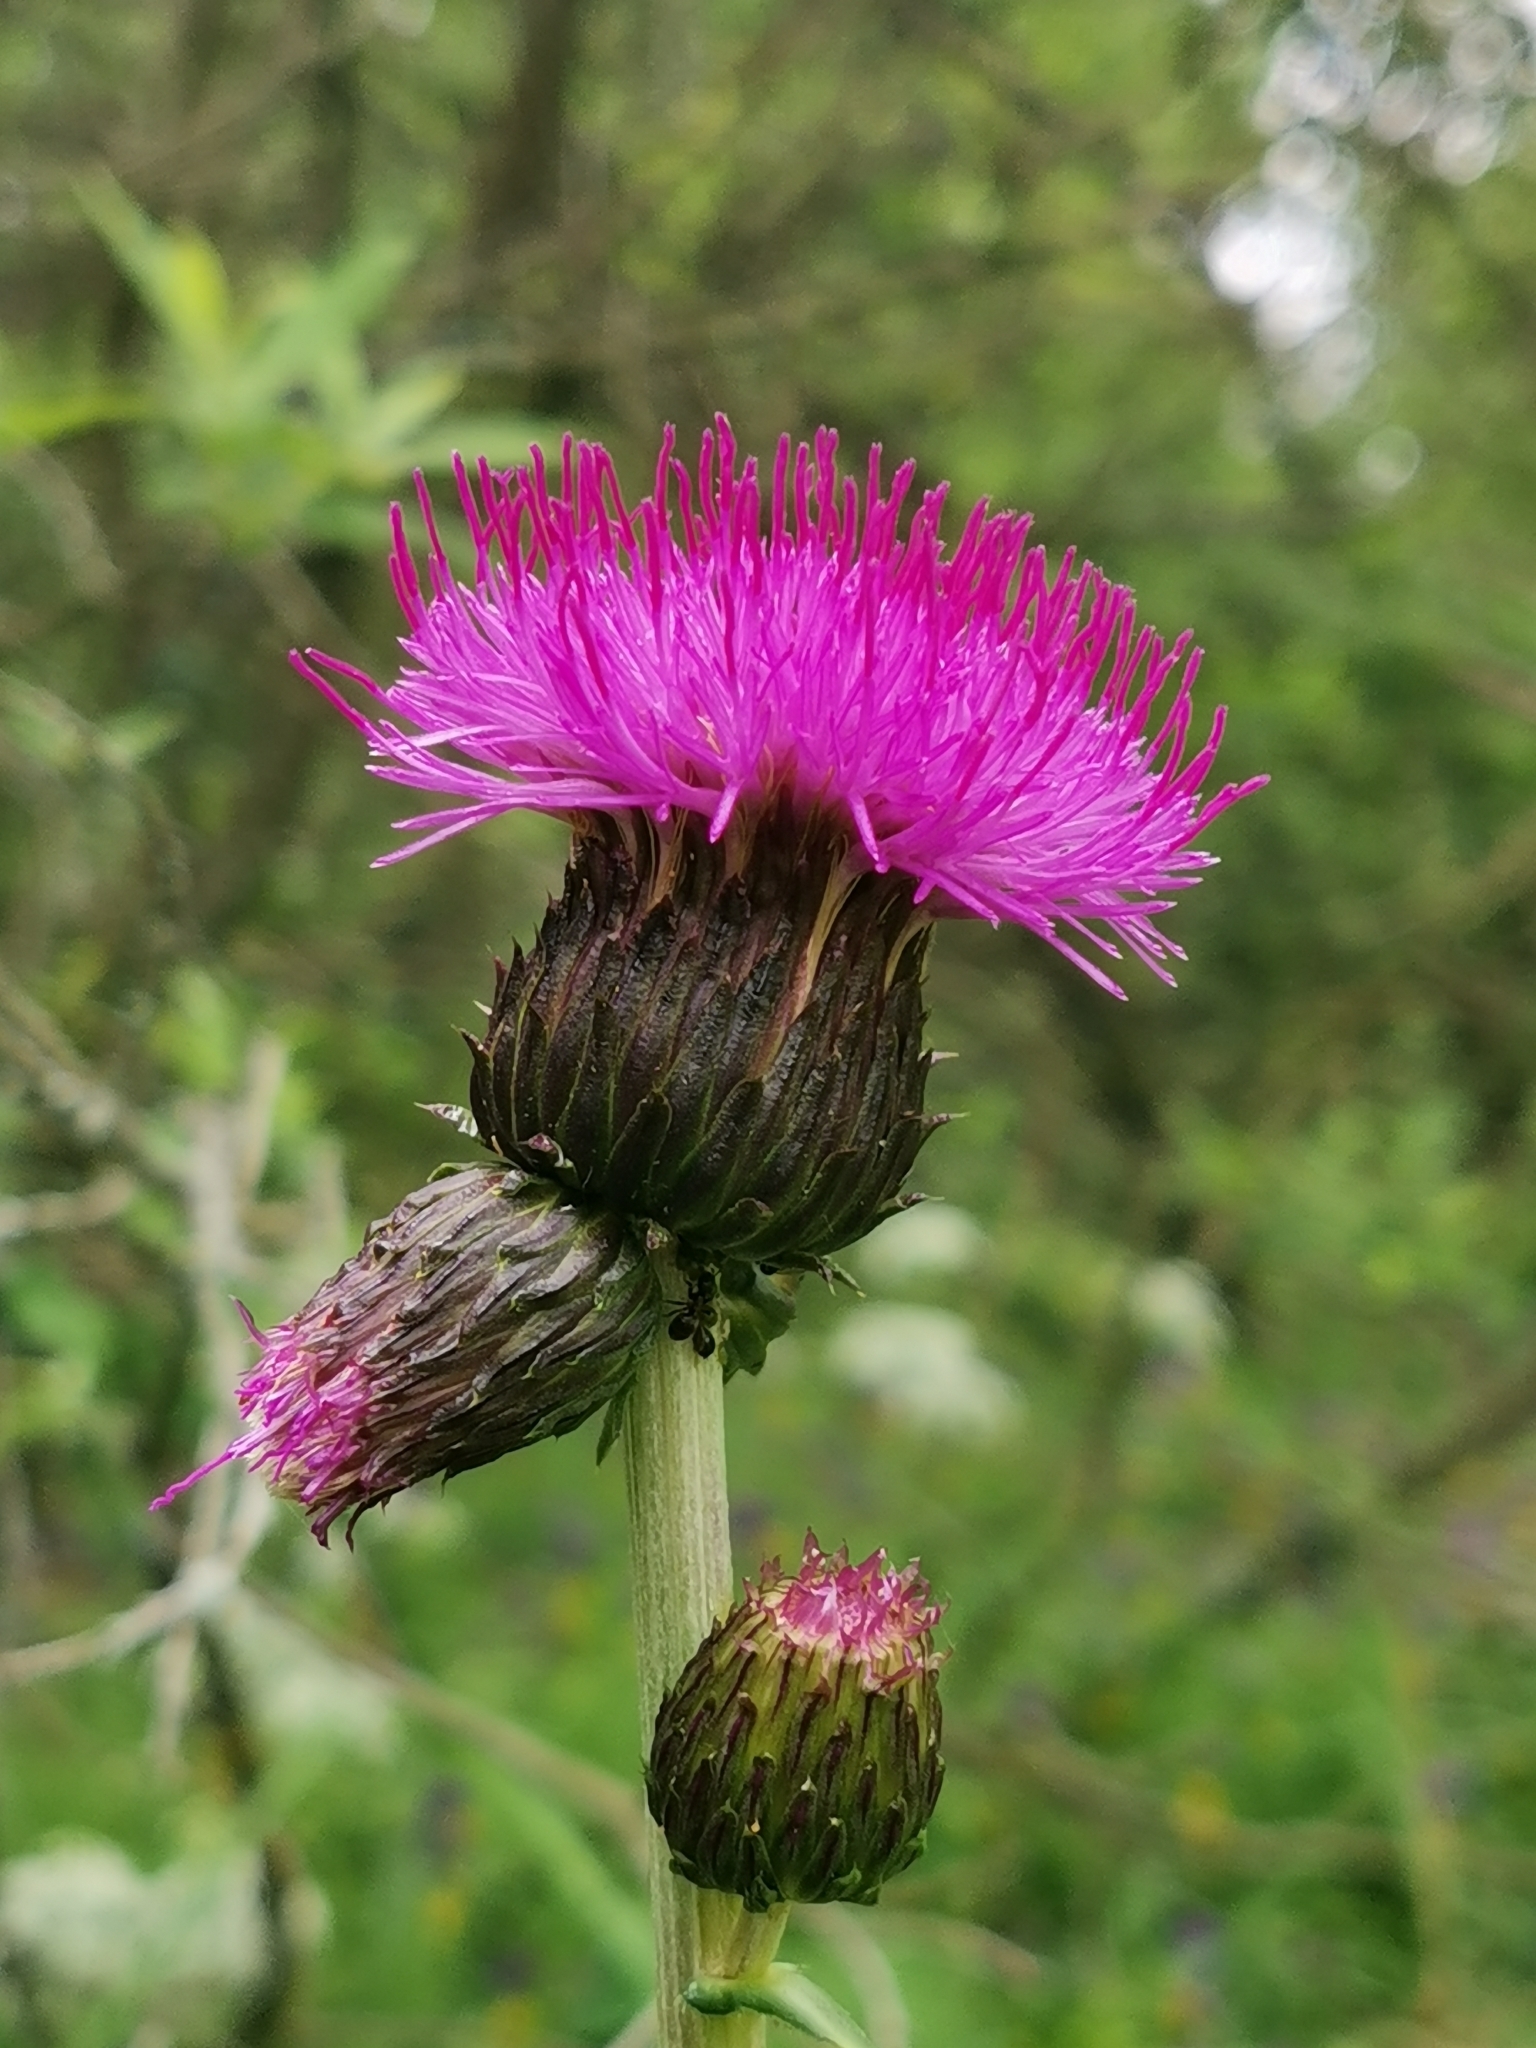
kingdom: Plantae
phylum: Tracheophyta
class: Magnoliopsida
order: Asterales
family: Asteraceae
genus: Cirsium
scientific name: Cirsium heterophyllum
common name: Melancholy thistle
